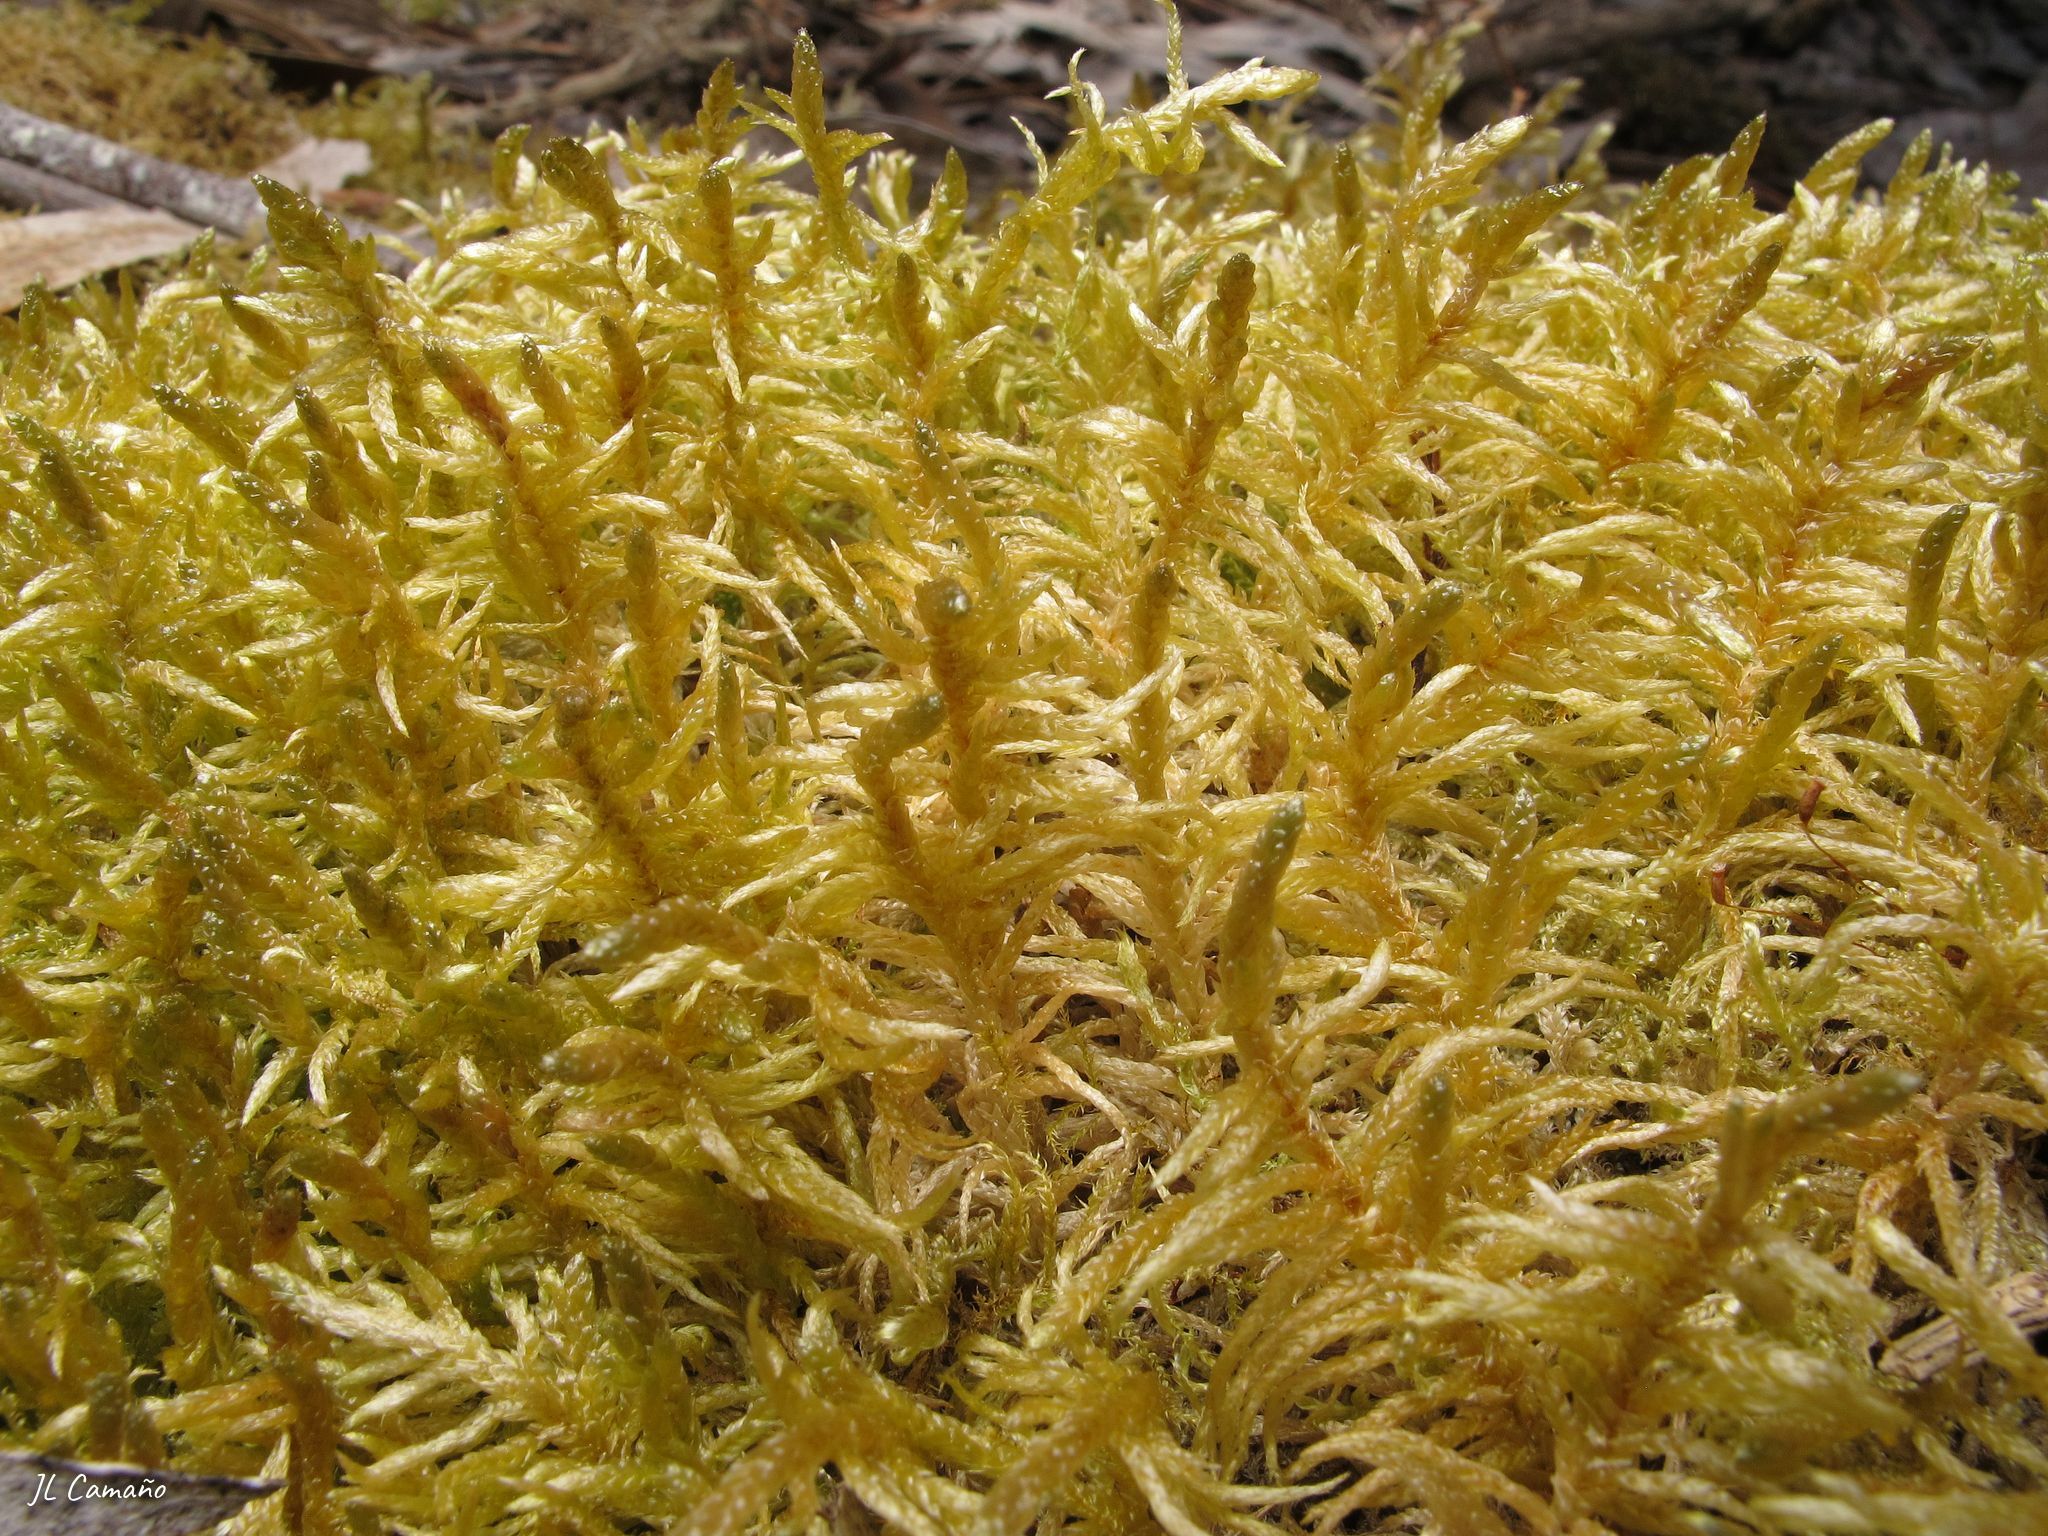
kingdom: Plantae
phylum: Bryophyta
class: Bryopsida
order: Hypnales
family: Brachytheciaceae
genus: Pseudoscleropodium
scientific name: Pseudoscleropodium purum
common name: Neat feather-moss
